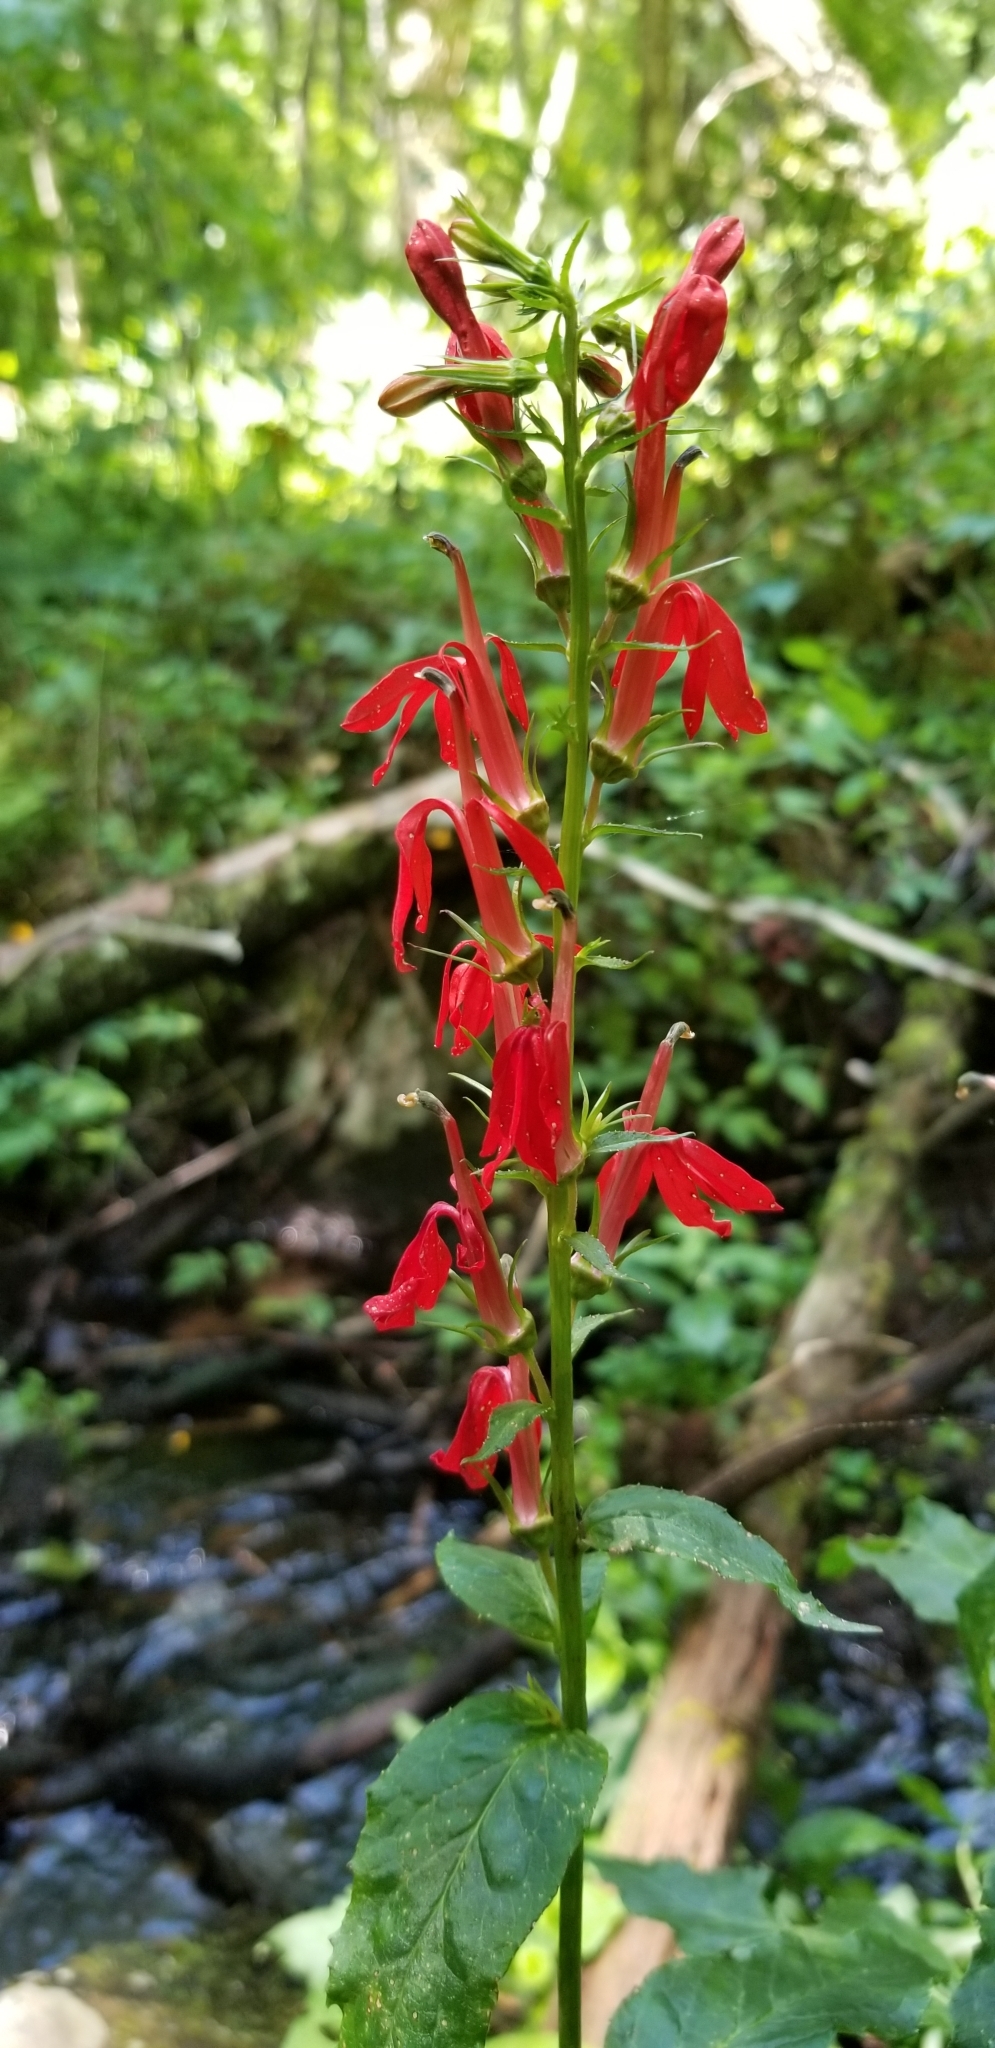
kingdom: Plantae
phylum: Tracheophyta
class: Magnoliopsida
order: Asterales
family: Campanulaceae
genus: Lobelia
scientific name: Lobelia cardinalis
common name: Cardinal flower
